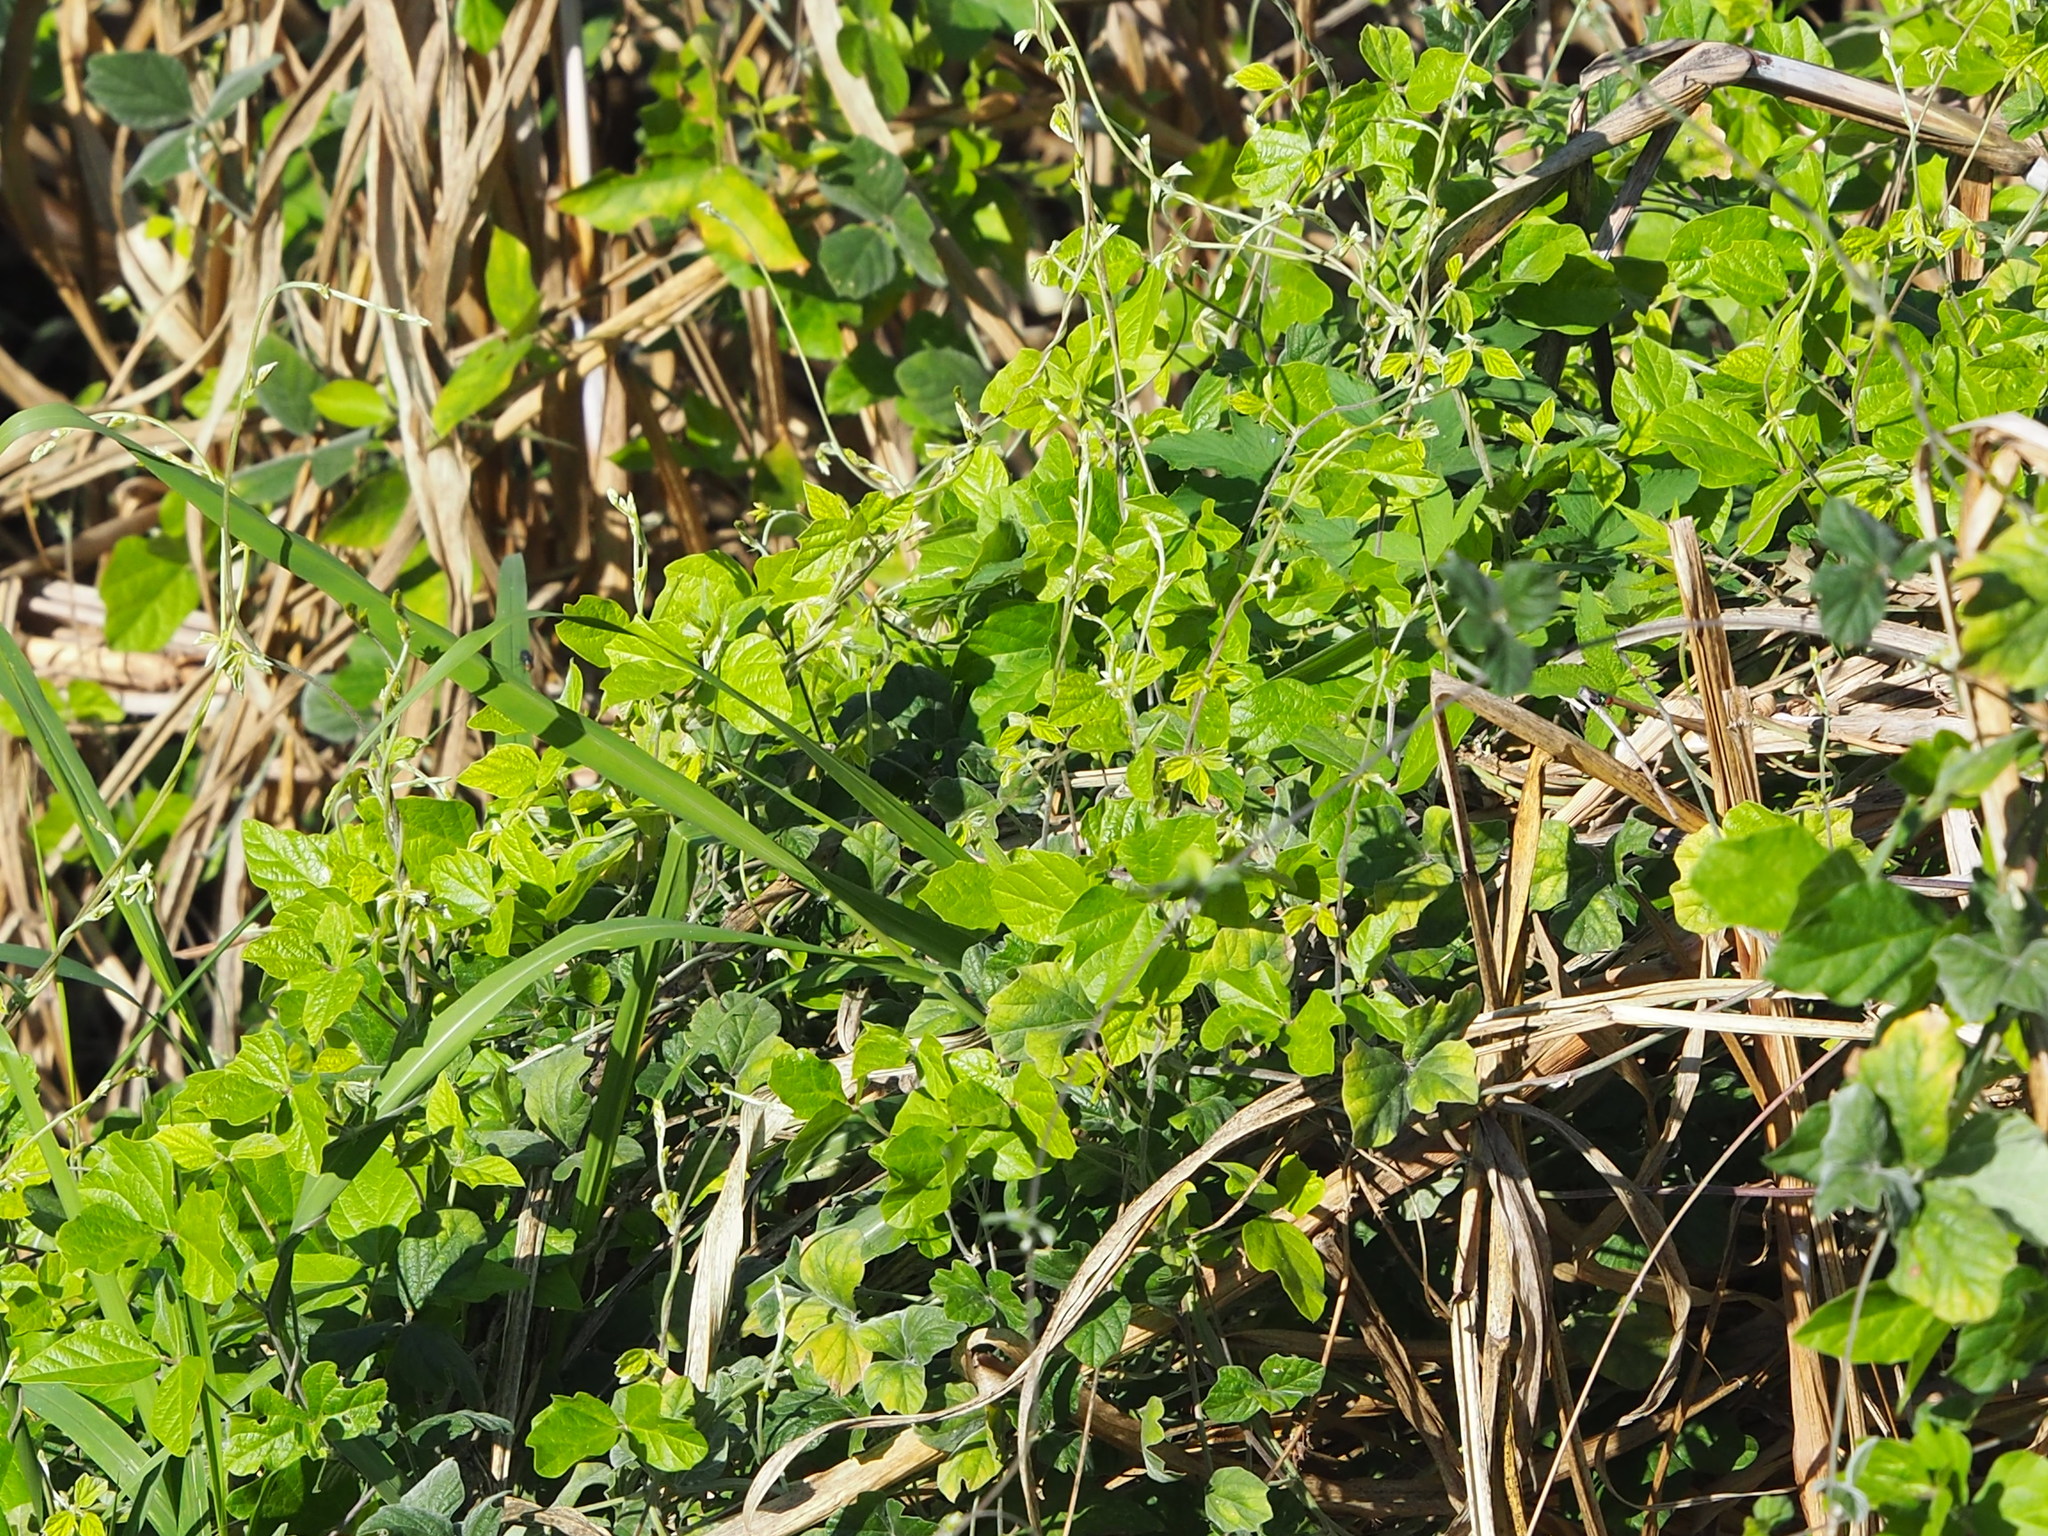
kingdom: Plantae
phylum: Tracheophyta
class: Magnoliopsida
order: Fabales
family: Fabaceae
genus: Macroptilium
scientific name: Macroptilium atropurpureum
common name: Purple bushbean
